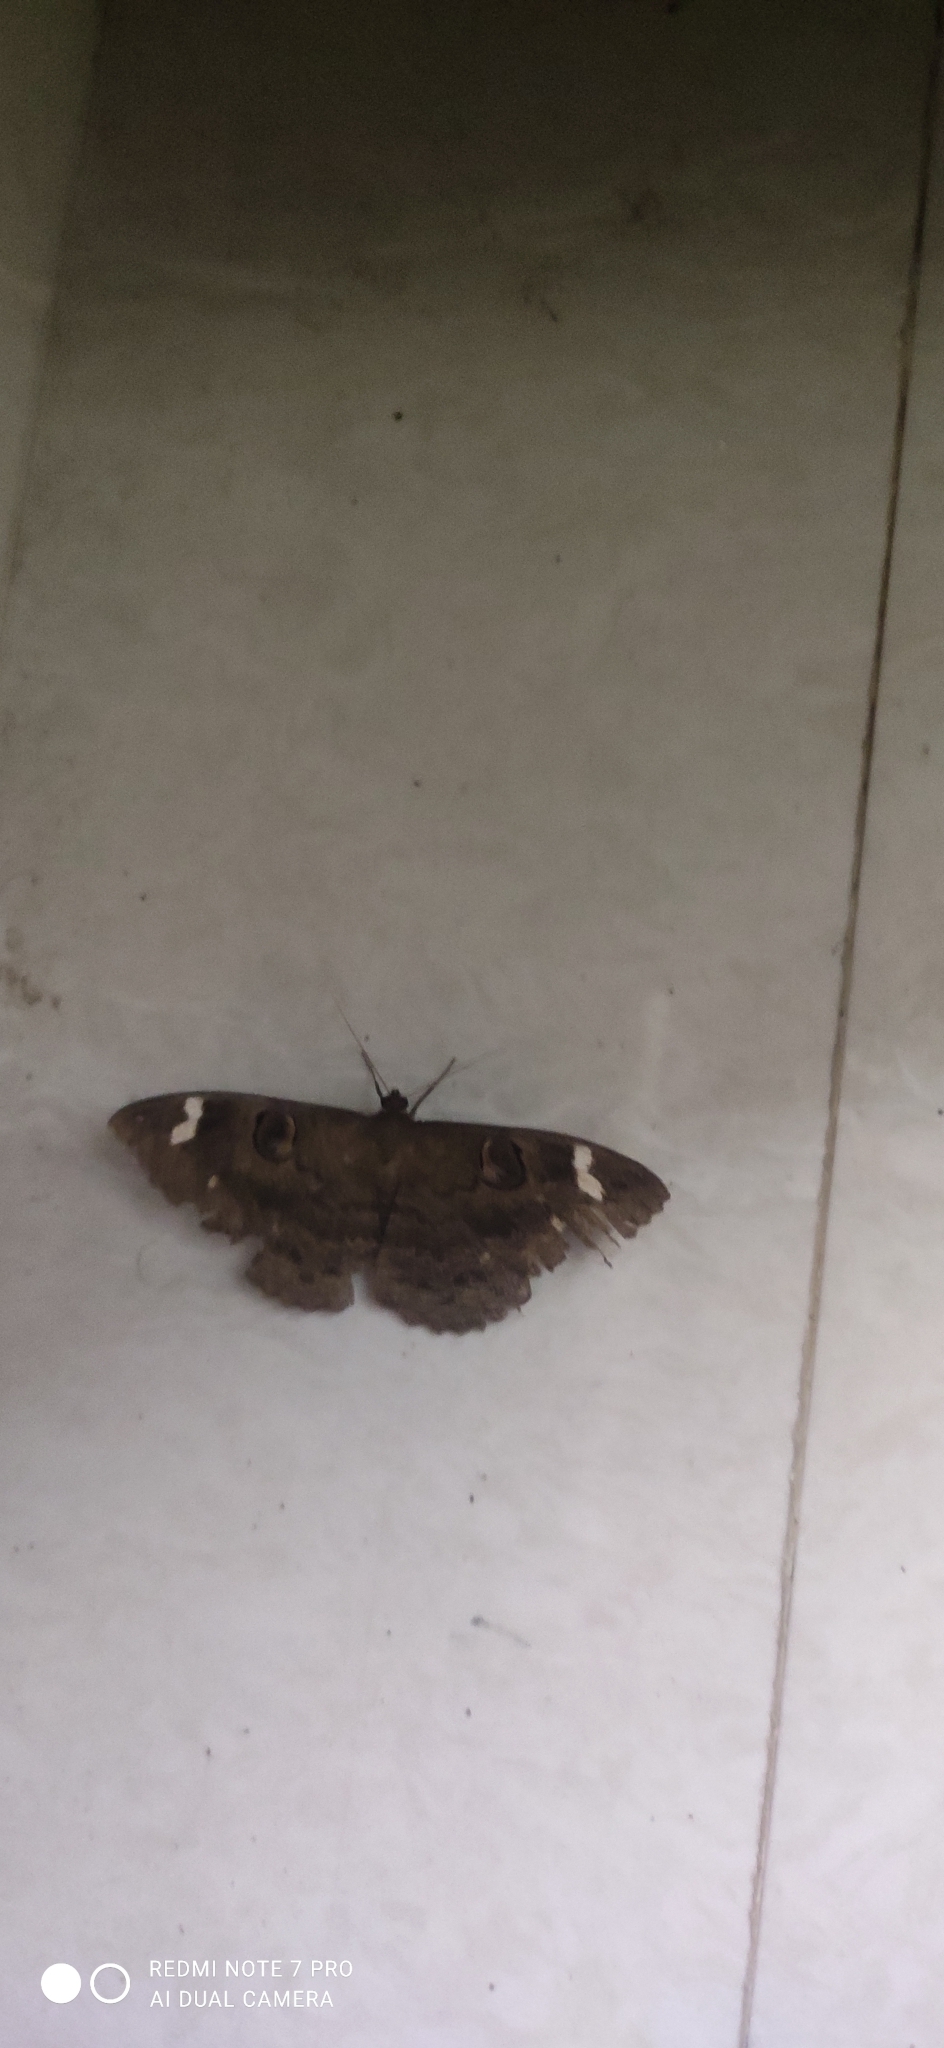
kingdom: Animalia
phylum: Arthropoda
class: Insecta
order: Lepidoptera
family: Erebidae
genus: Erebus
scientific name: Erebus hieroglyphica
